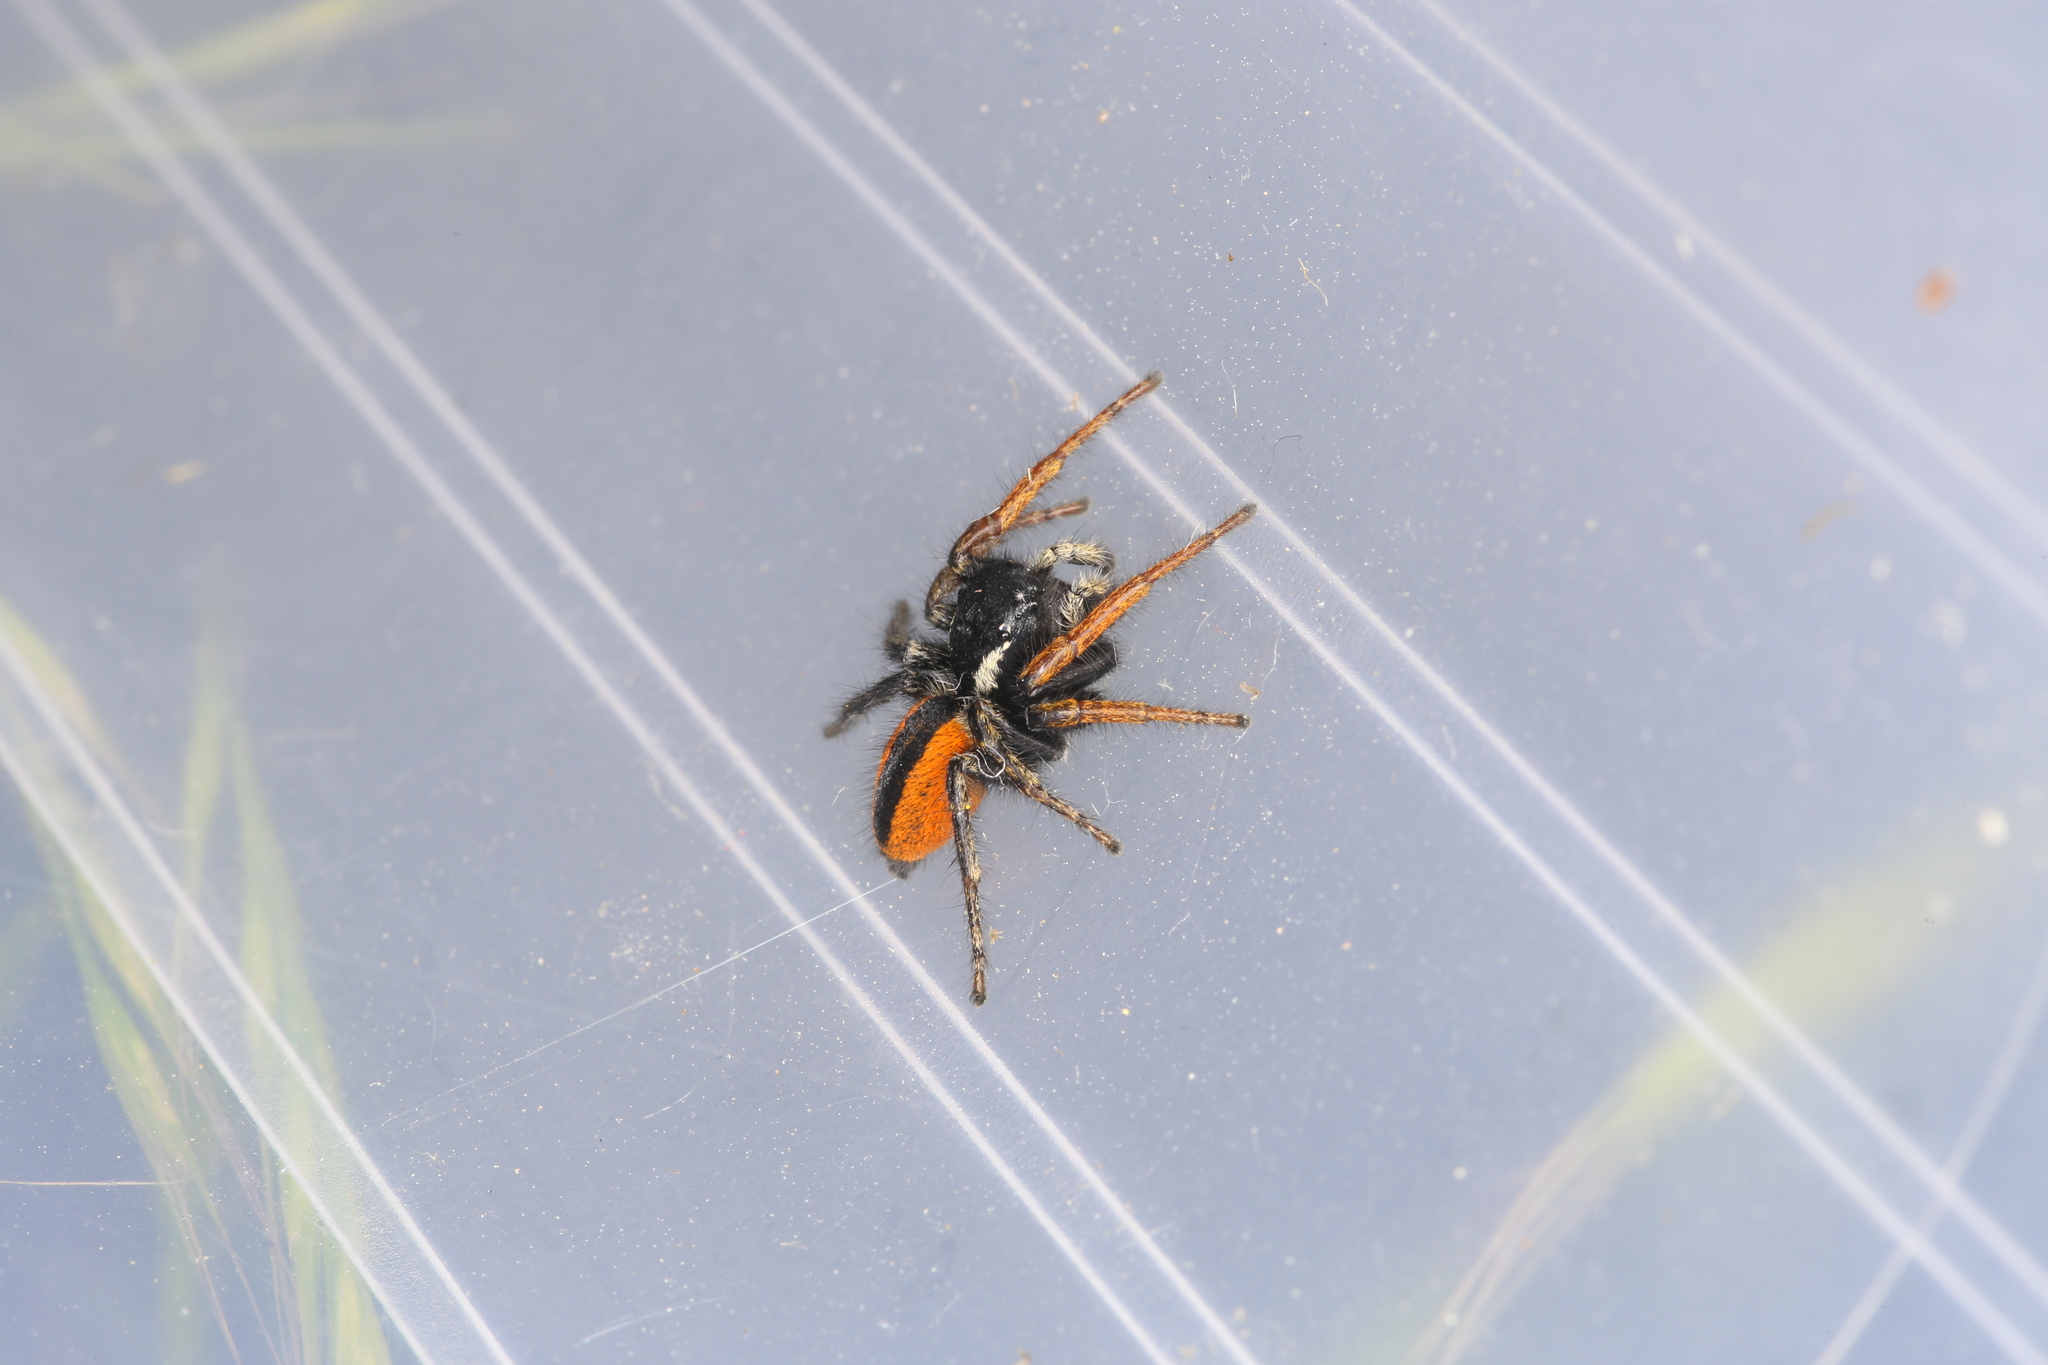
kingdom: Animalia
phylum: Arthropoda
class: Arachnida
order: Araneae
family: Salticidae
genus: Philaeus
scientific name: Philaeus chrysops
